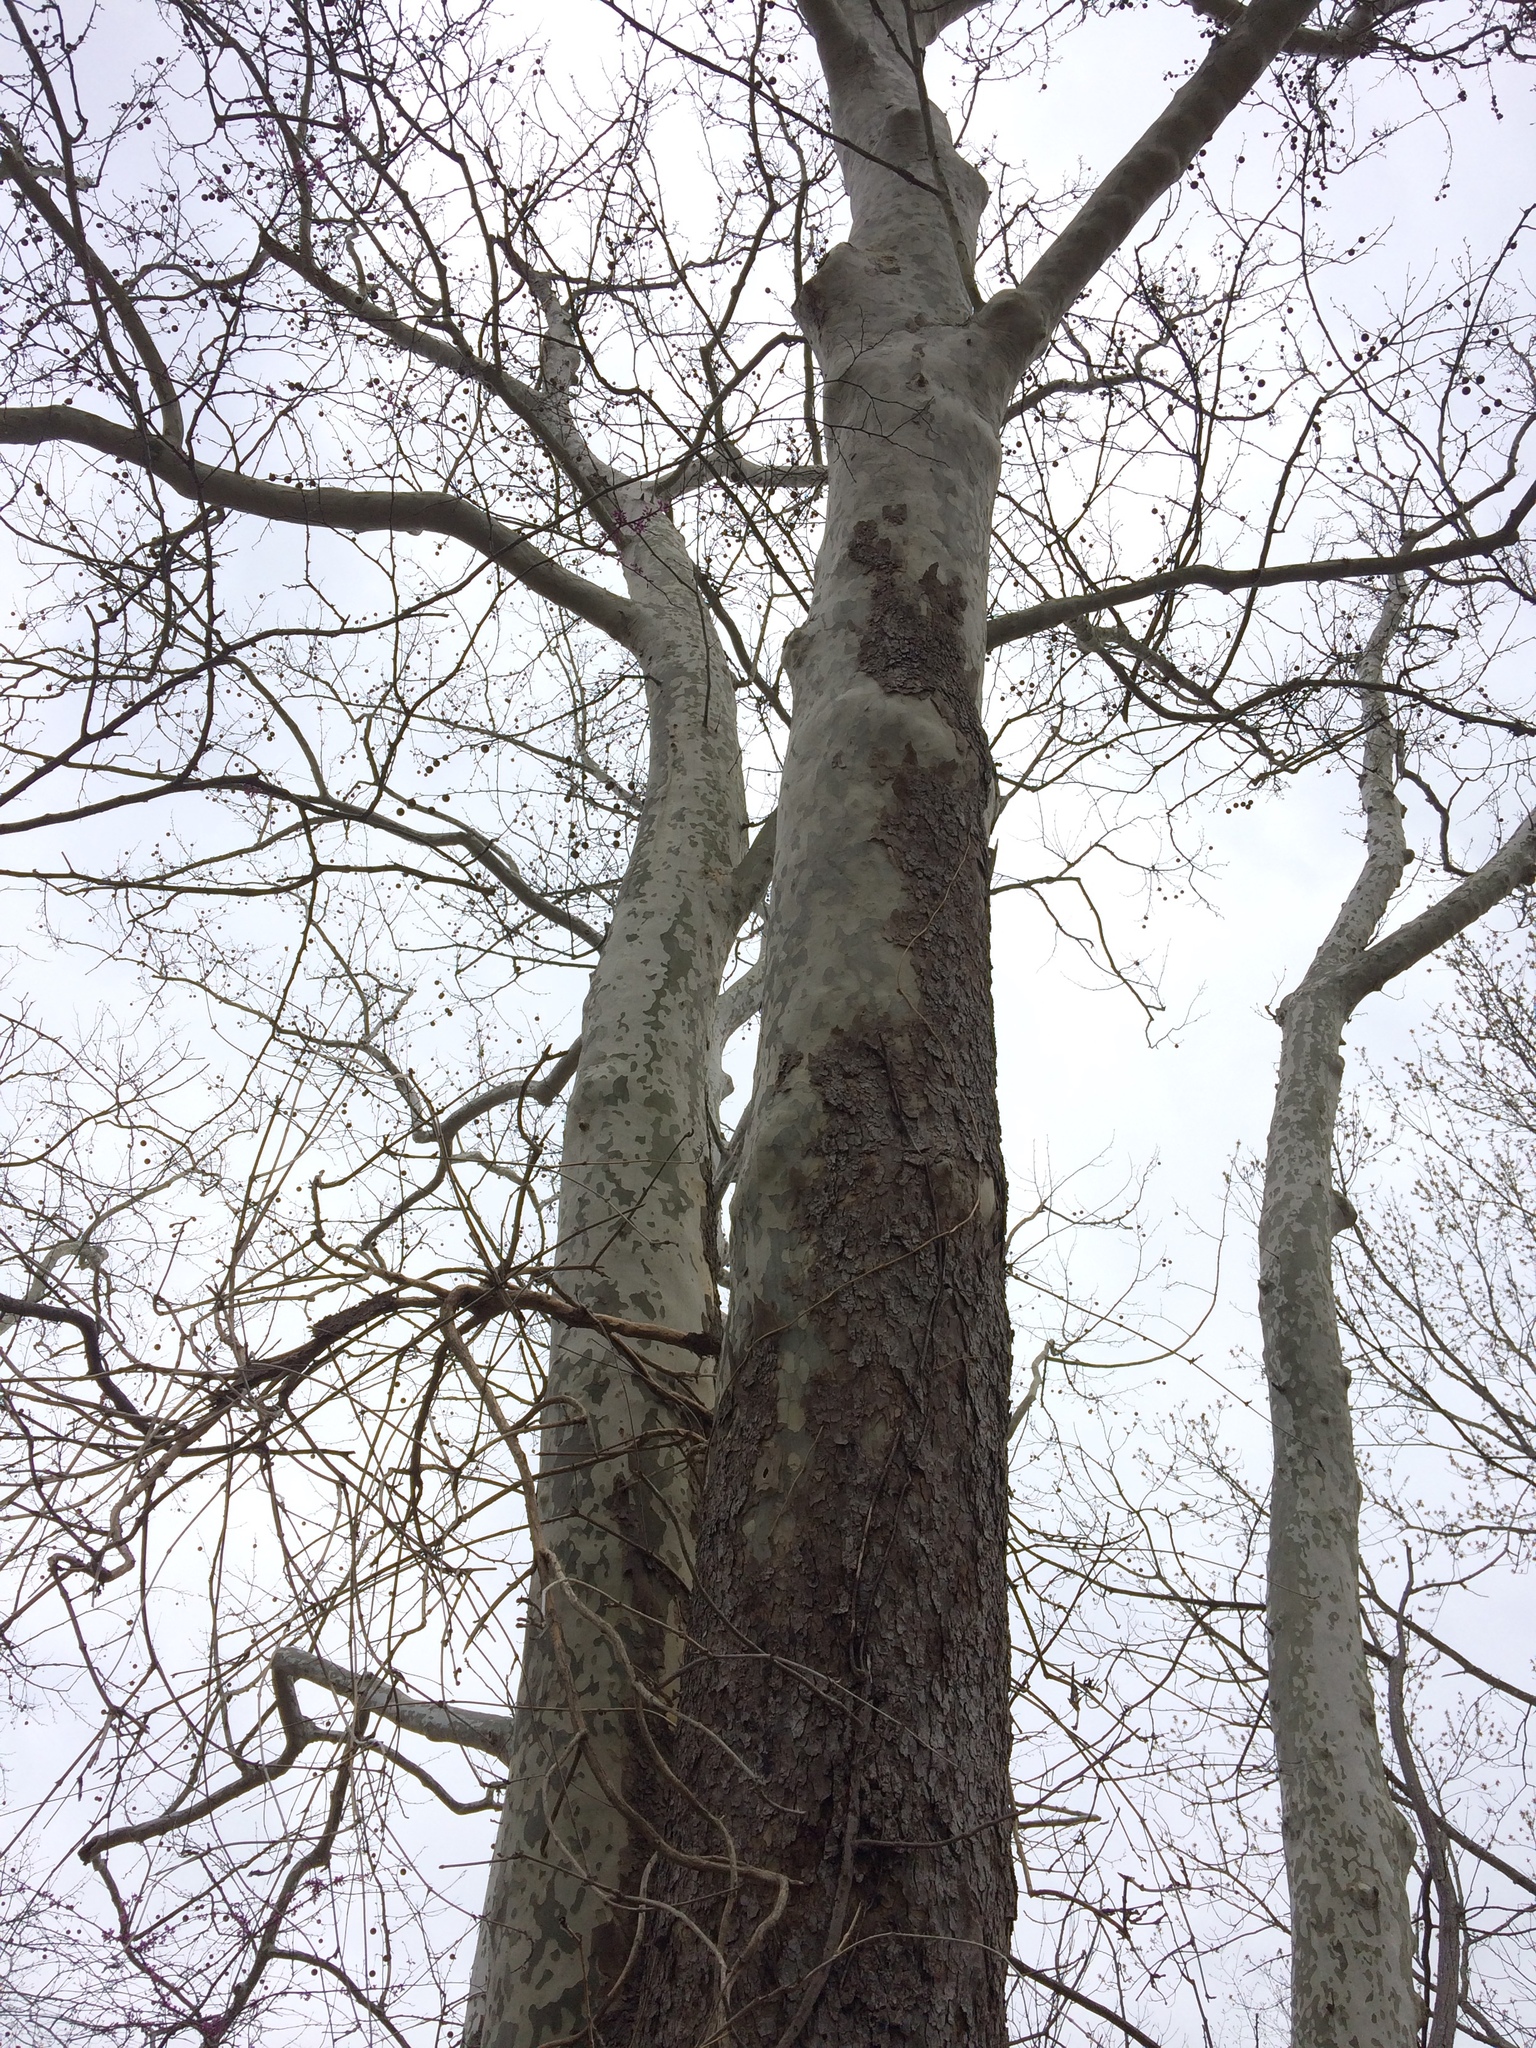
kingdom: Plantae
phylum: Tracheophyta
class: Magnoliopsida
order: Proteales
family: Platanaceae
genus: Platanus
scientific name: Platanus occidentalis
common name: American sycamore
